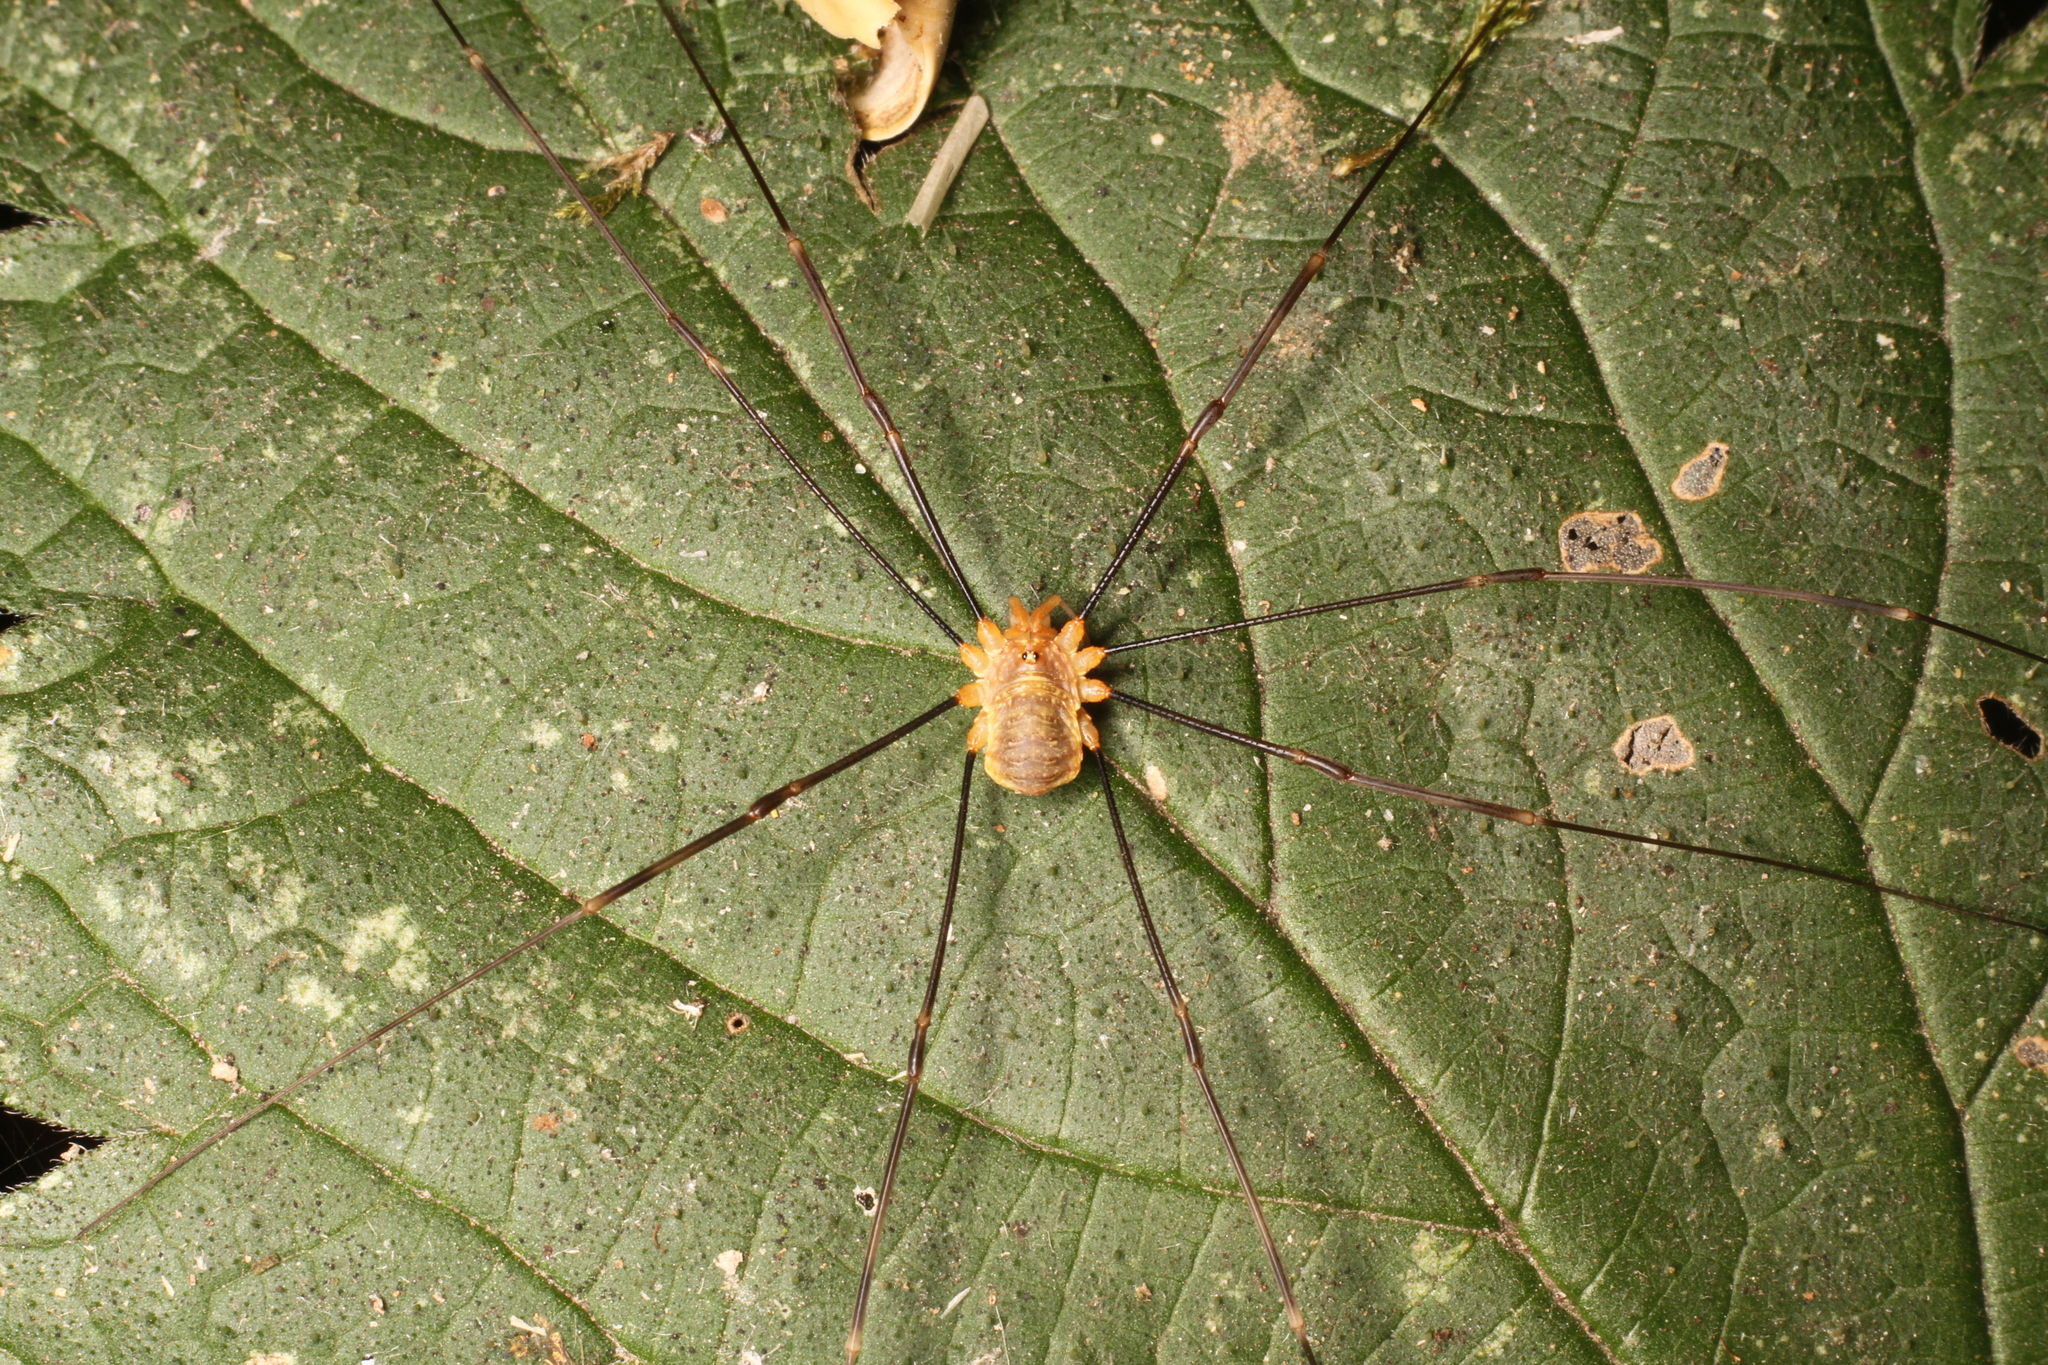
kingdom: Animalia
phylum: Arthropoda
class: Arachnida
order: Opiliones
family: Phalangiidae
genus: Opilio
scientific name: Opilio canestrinii
